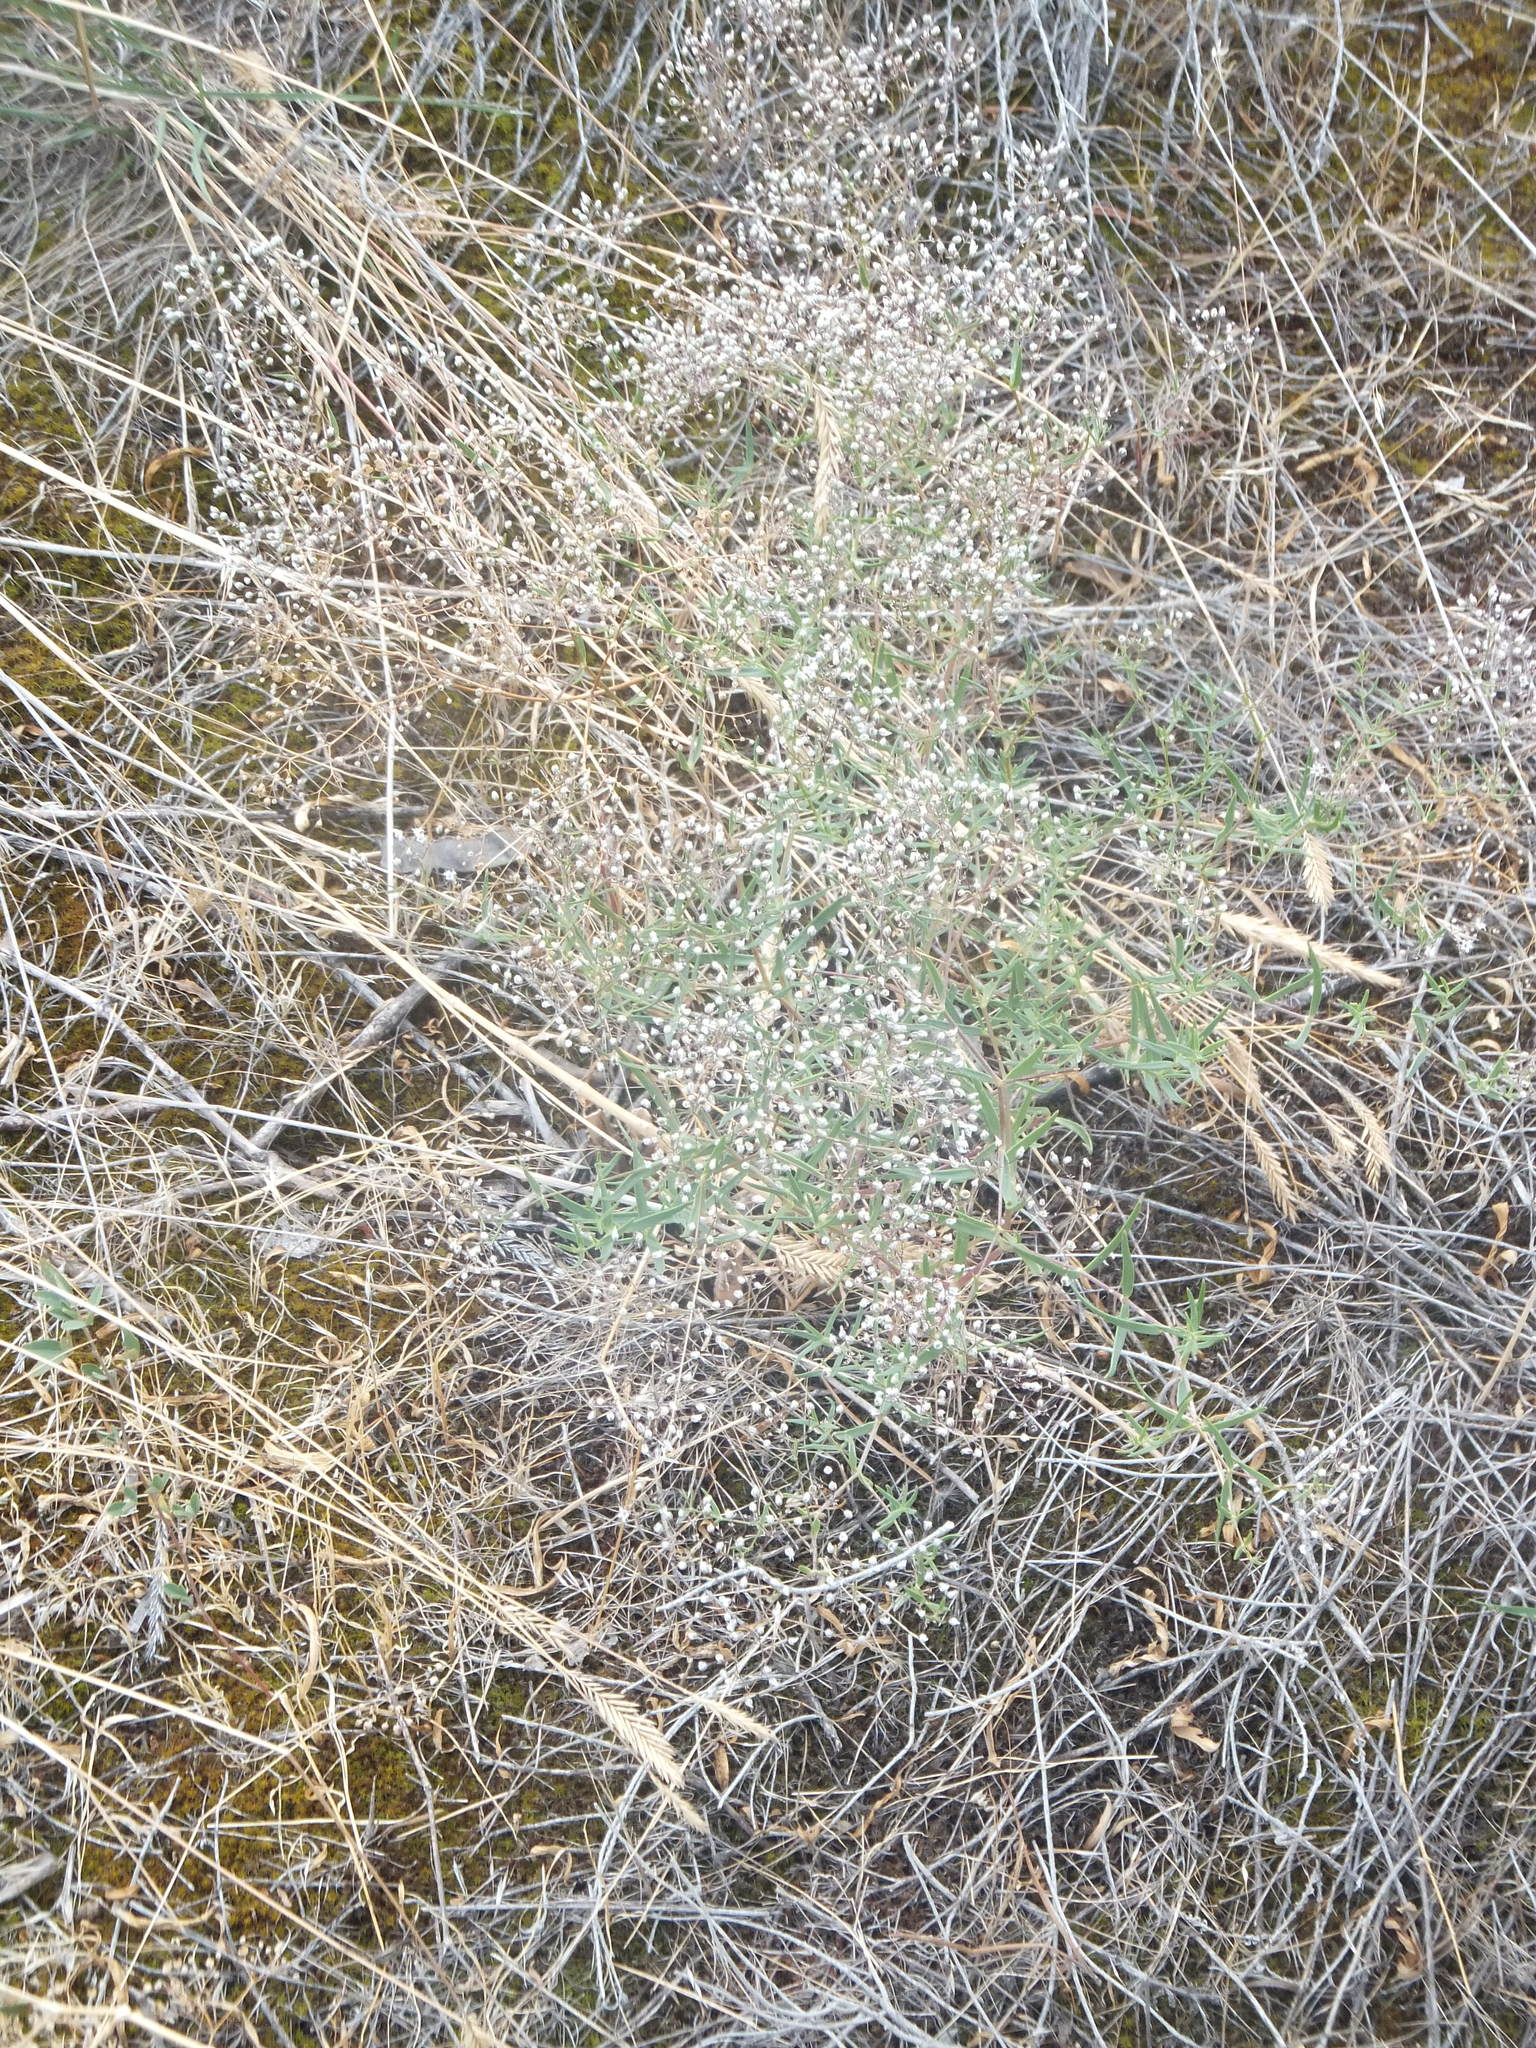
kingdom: Plantae
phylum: Tracheophyta
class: Magnoliopsida
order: Caryophyllales
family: Caryophyllaceae
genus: Gypsophila
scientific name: Gypsophila paniculata
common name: Baby's-breath
